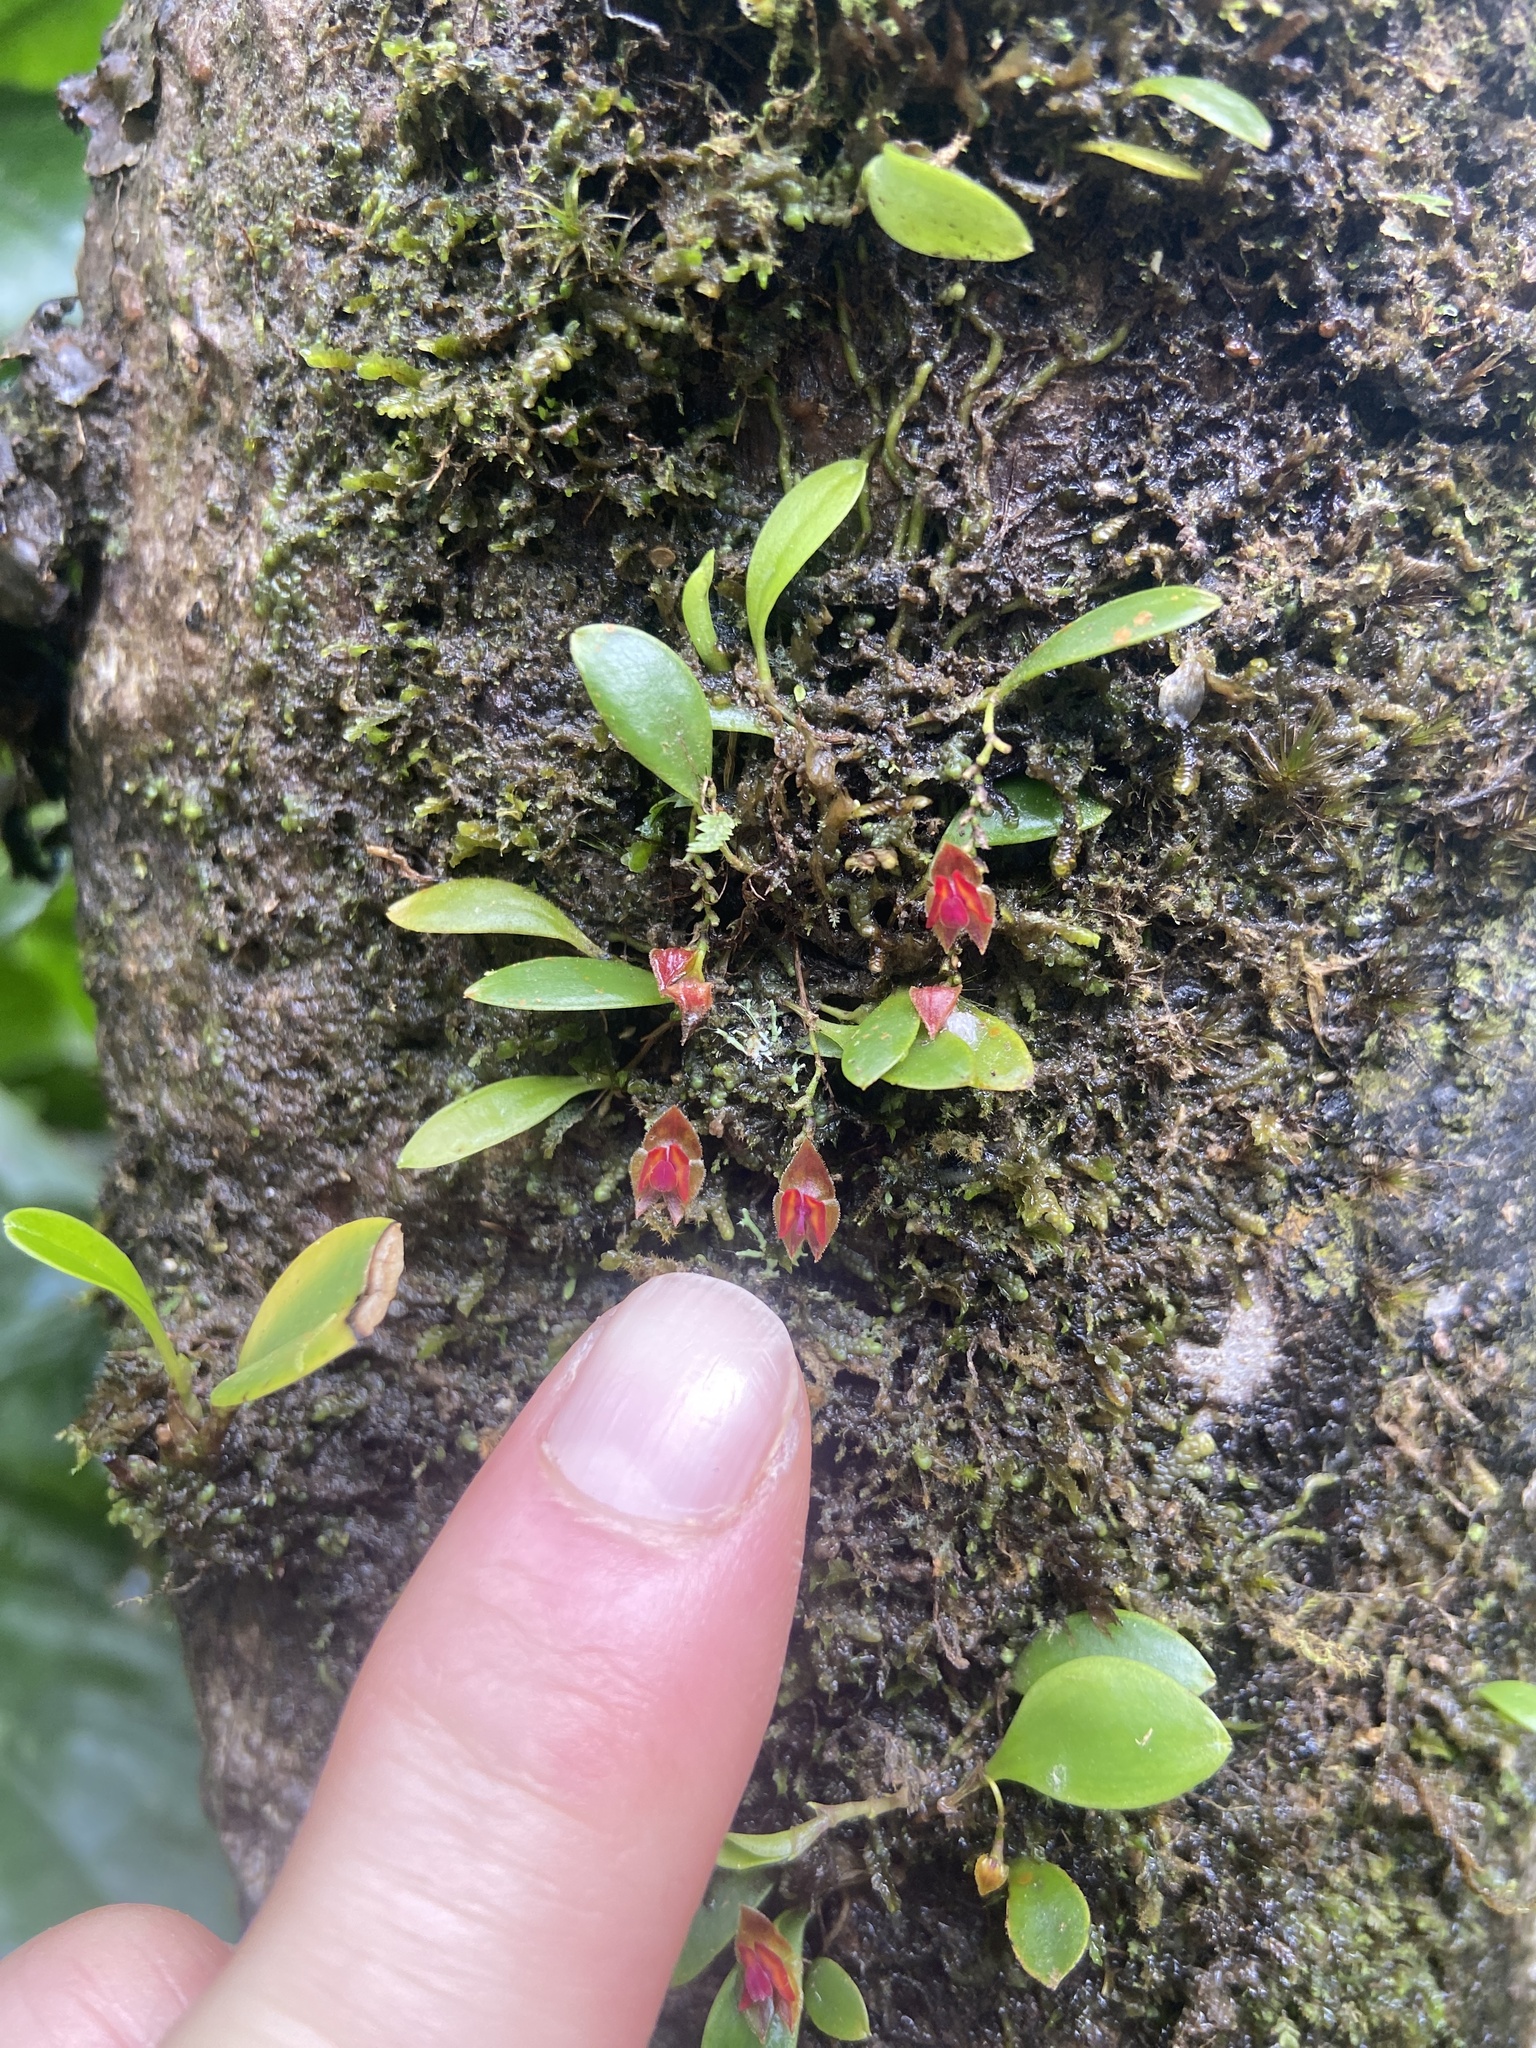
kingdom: Plantae
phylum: Tracheophyta
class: Liliopsida
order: Asparagales
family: Orchidaceae
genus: Lepanthes
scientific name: Lepanthes caritensis
